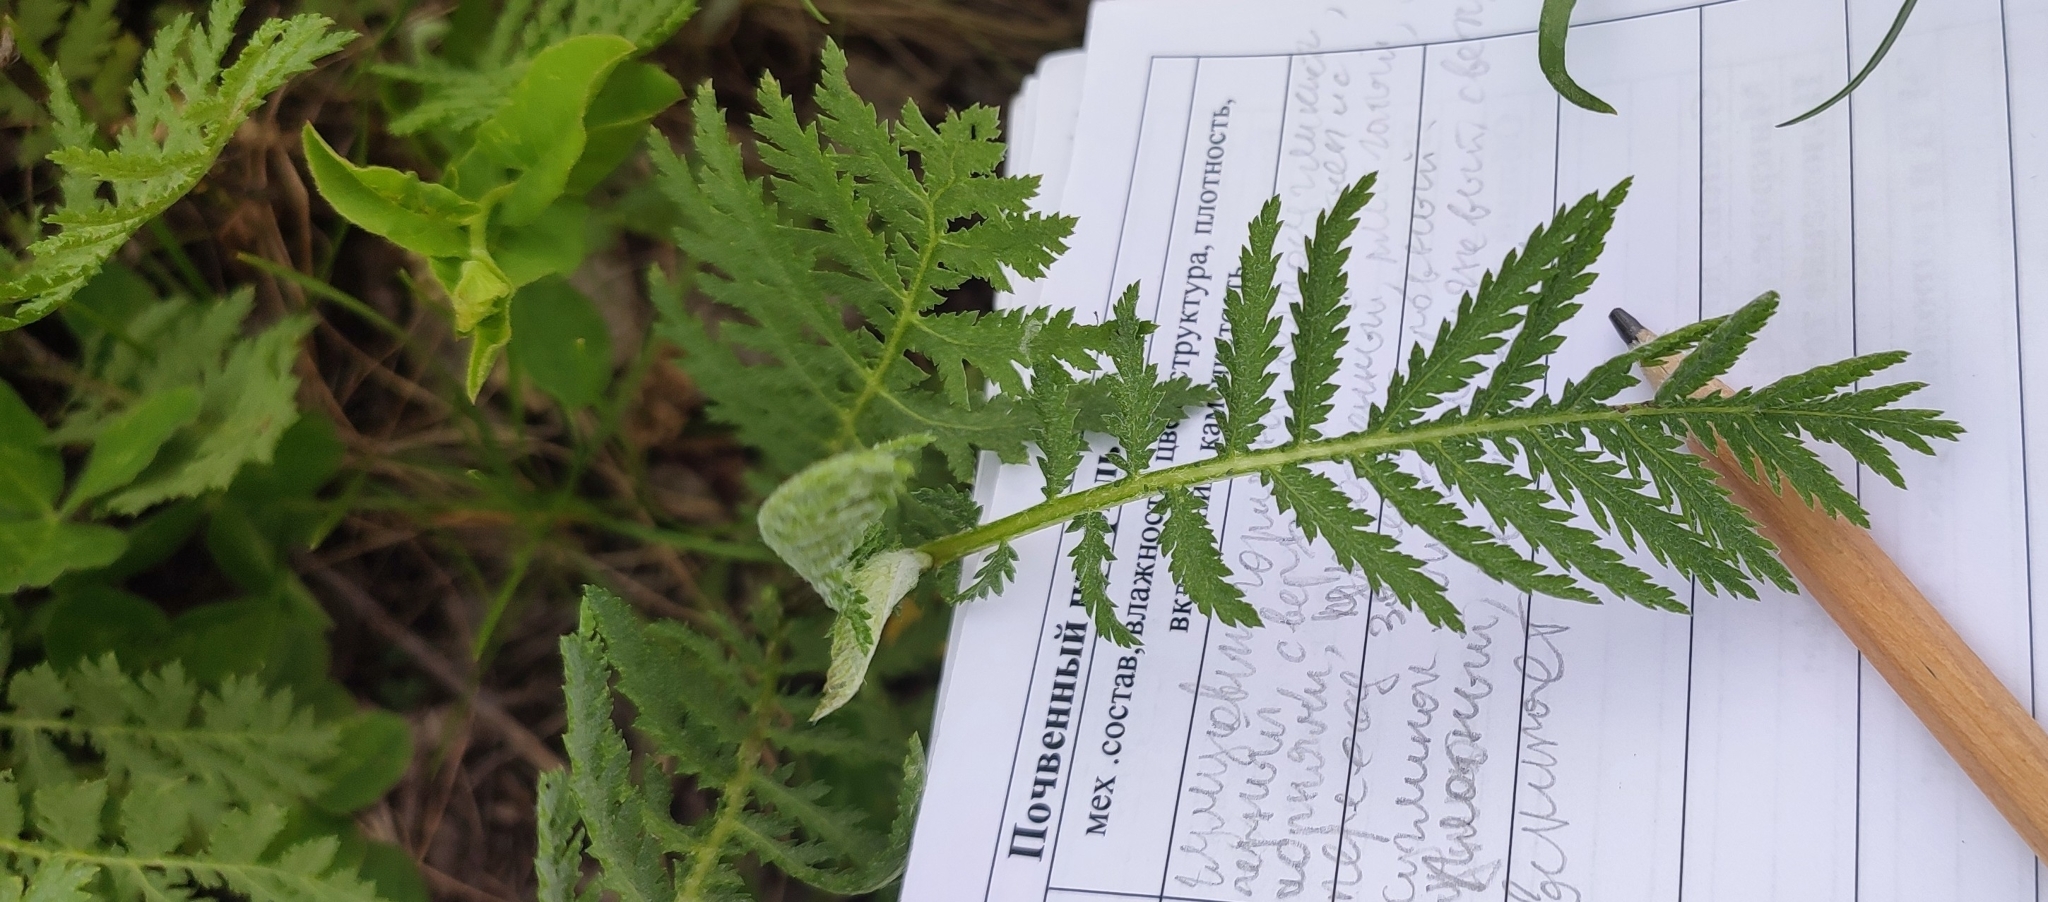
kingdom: Plantae
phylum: Tracheophyta
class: Magnoliopsida
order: Asterales
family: Asteraceae
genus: Tanacetum
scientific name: Tanacetum vulgare
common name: Common tansy
